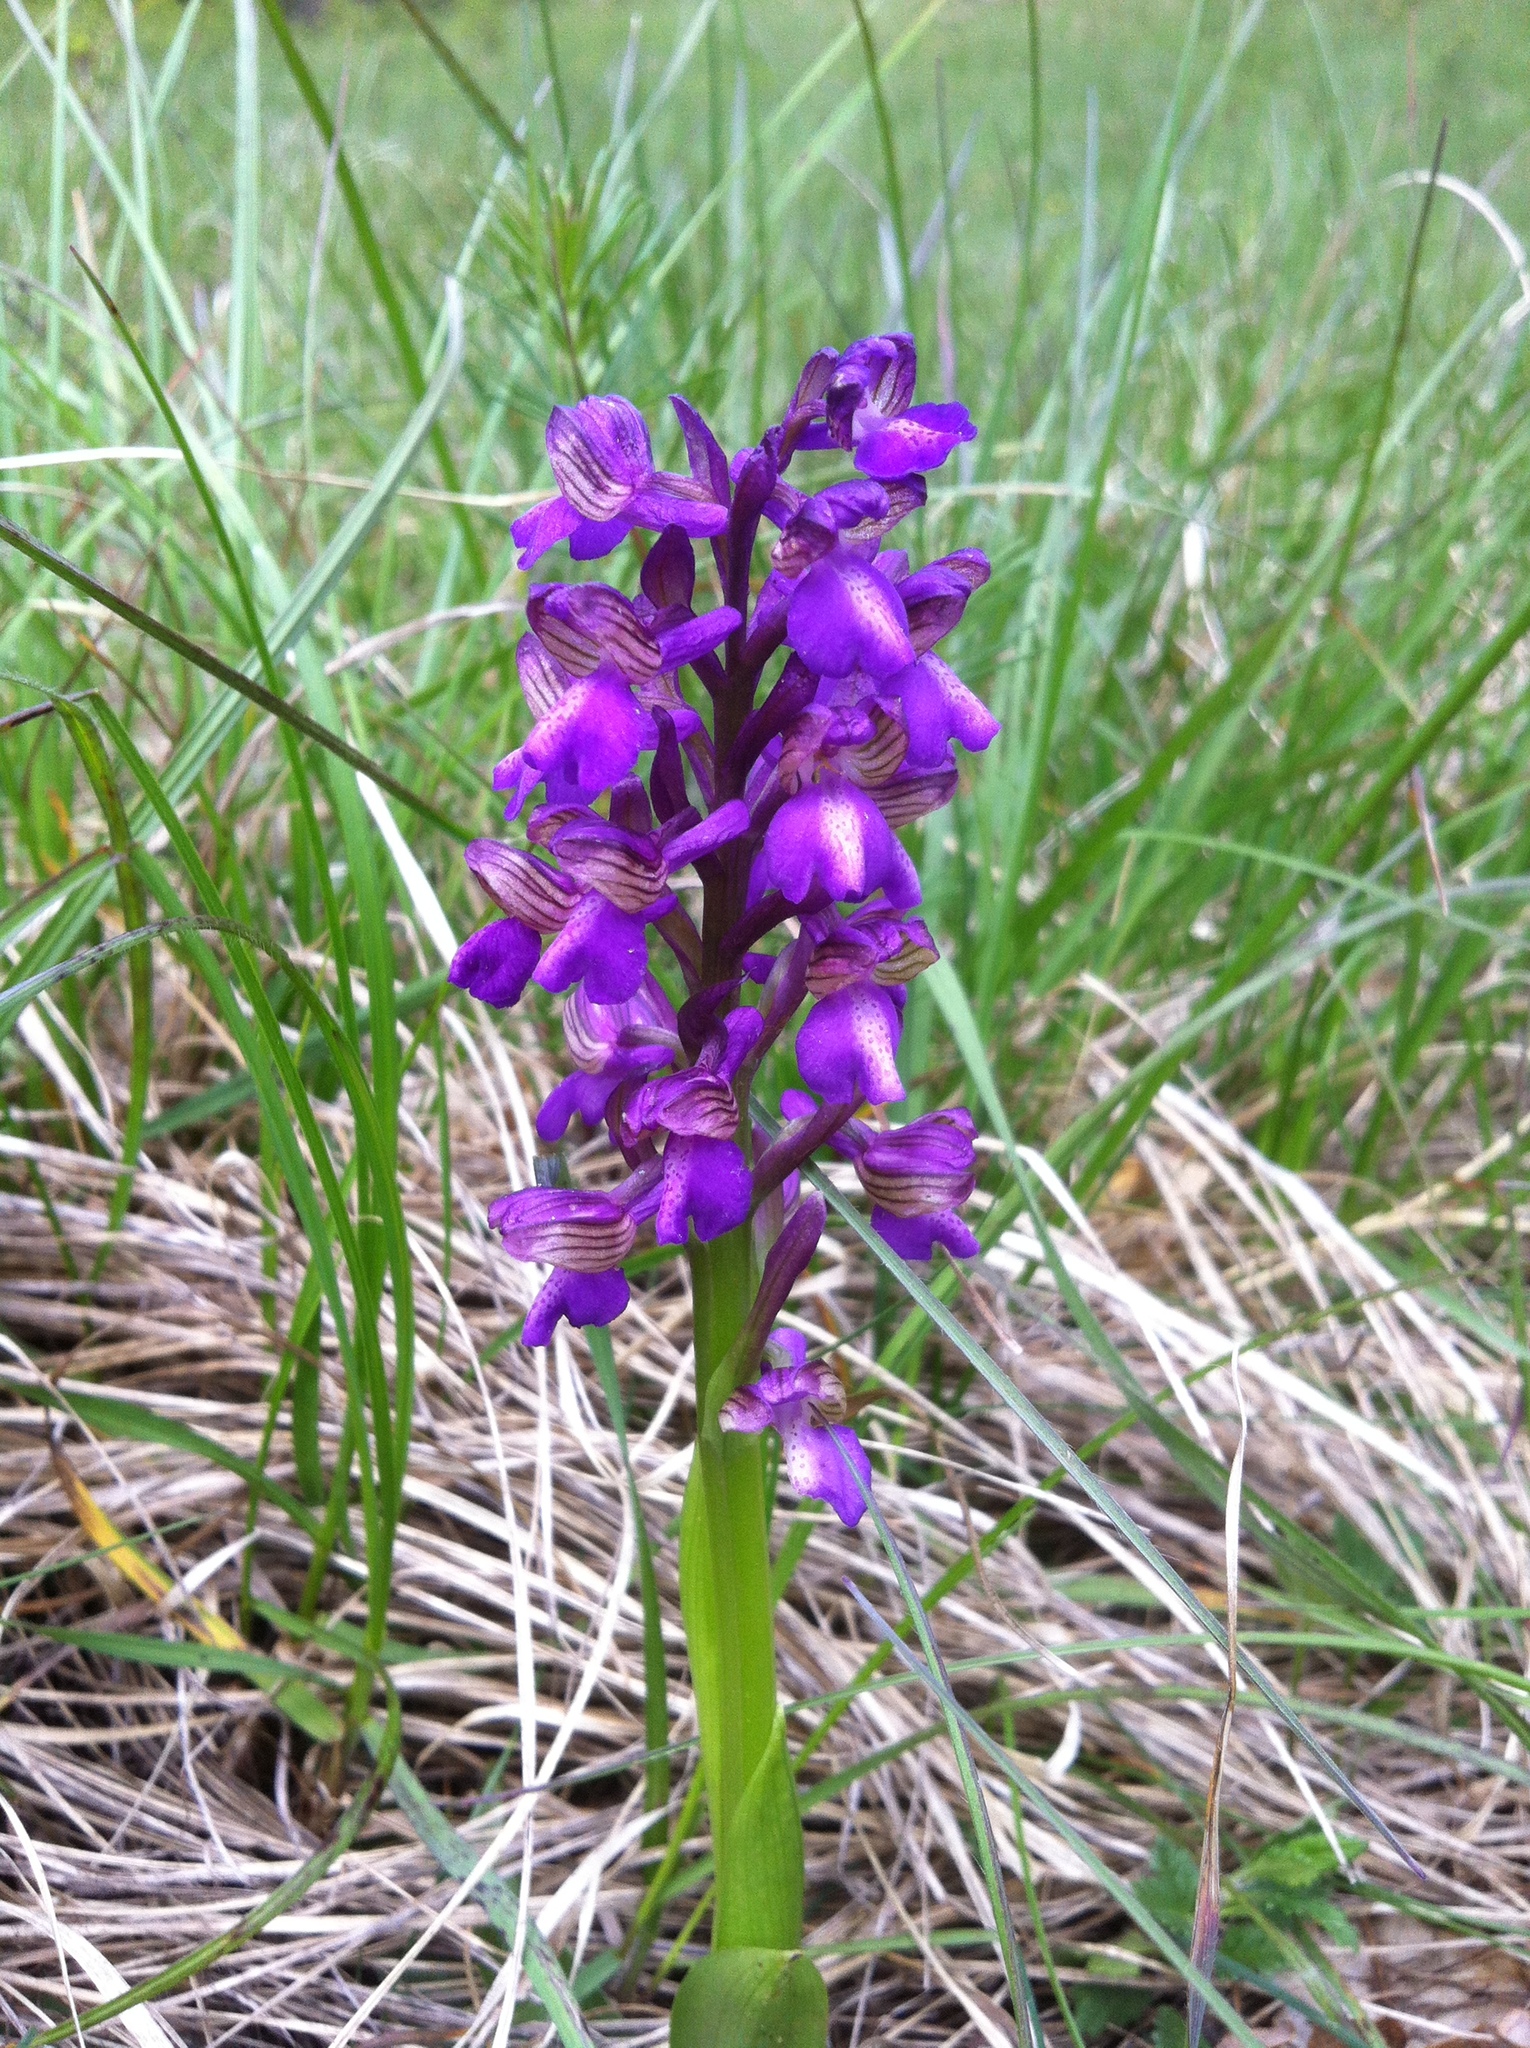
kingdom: Plantae
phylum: Tracheophyta
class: Liliopsida
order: Asparagales
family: Orchidaceae
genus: Anacamptis
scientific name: Anacamptis morio
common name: Green-winged orchid
